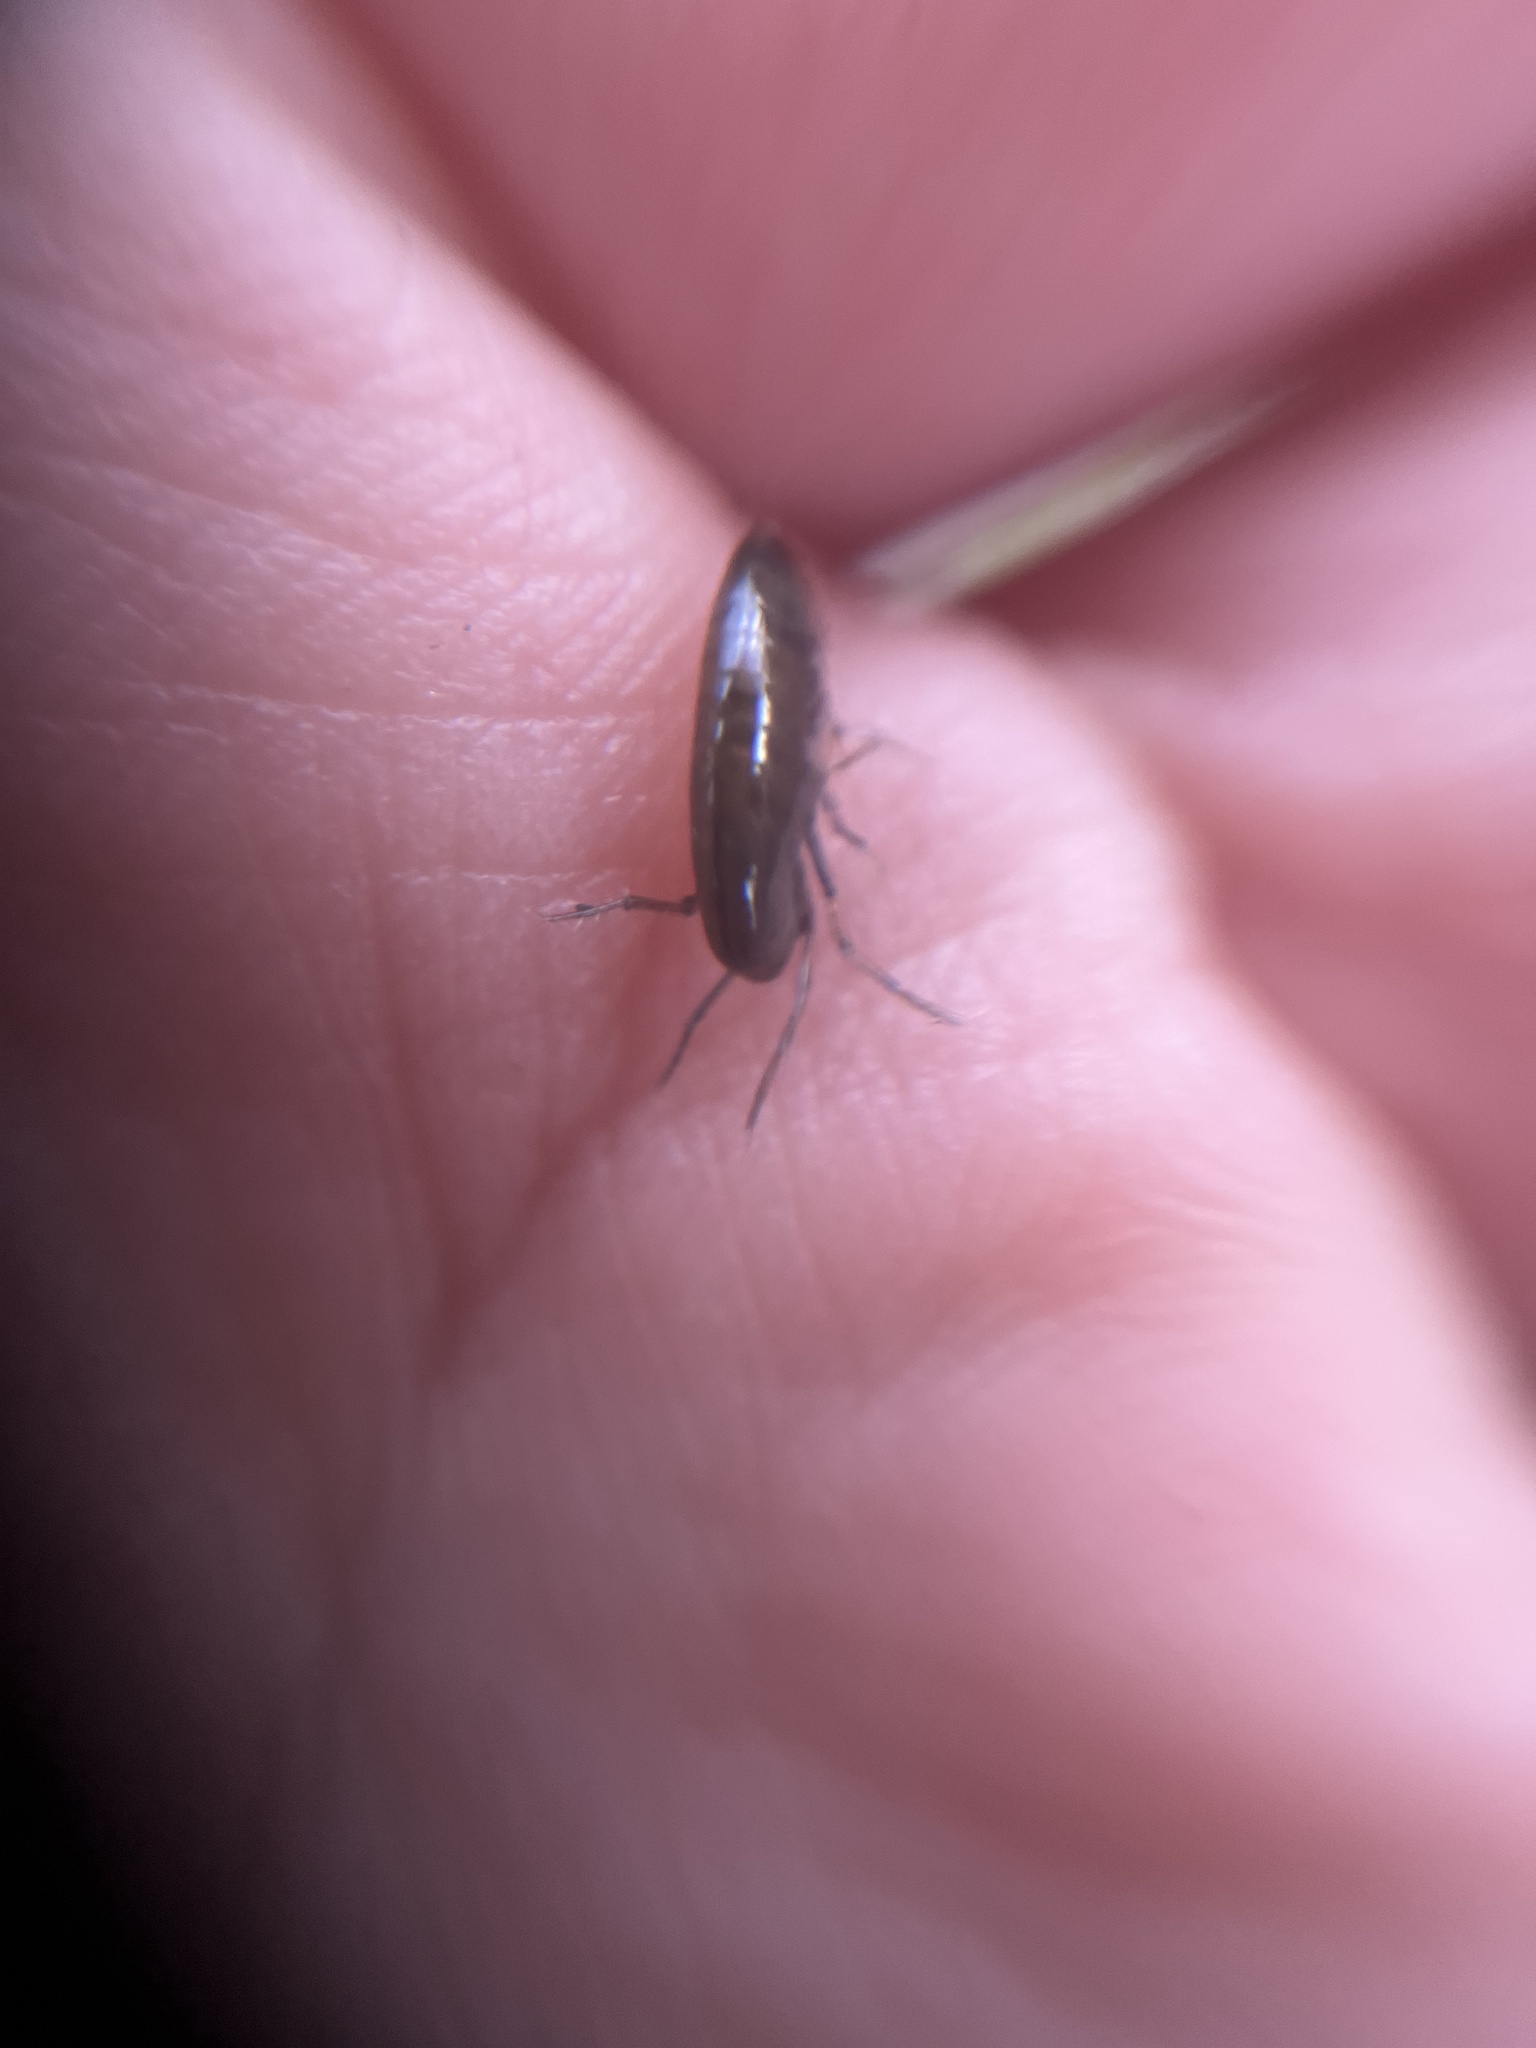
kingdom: Animalia
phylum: Arthropoda
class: Malacostraca
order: Amphipoda
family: Arcitalitridae
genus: Arcitalitrus
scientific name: Arcitalitrus dorrieni
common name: Landhopper
